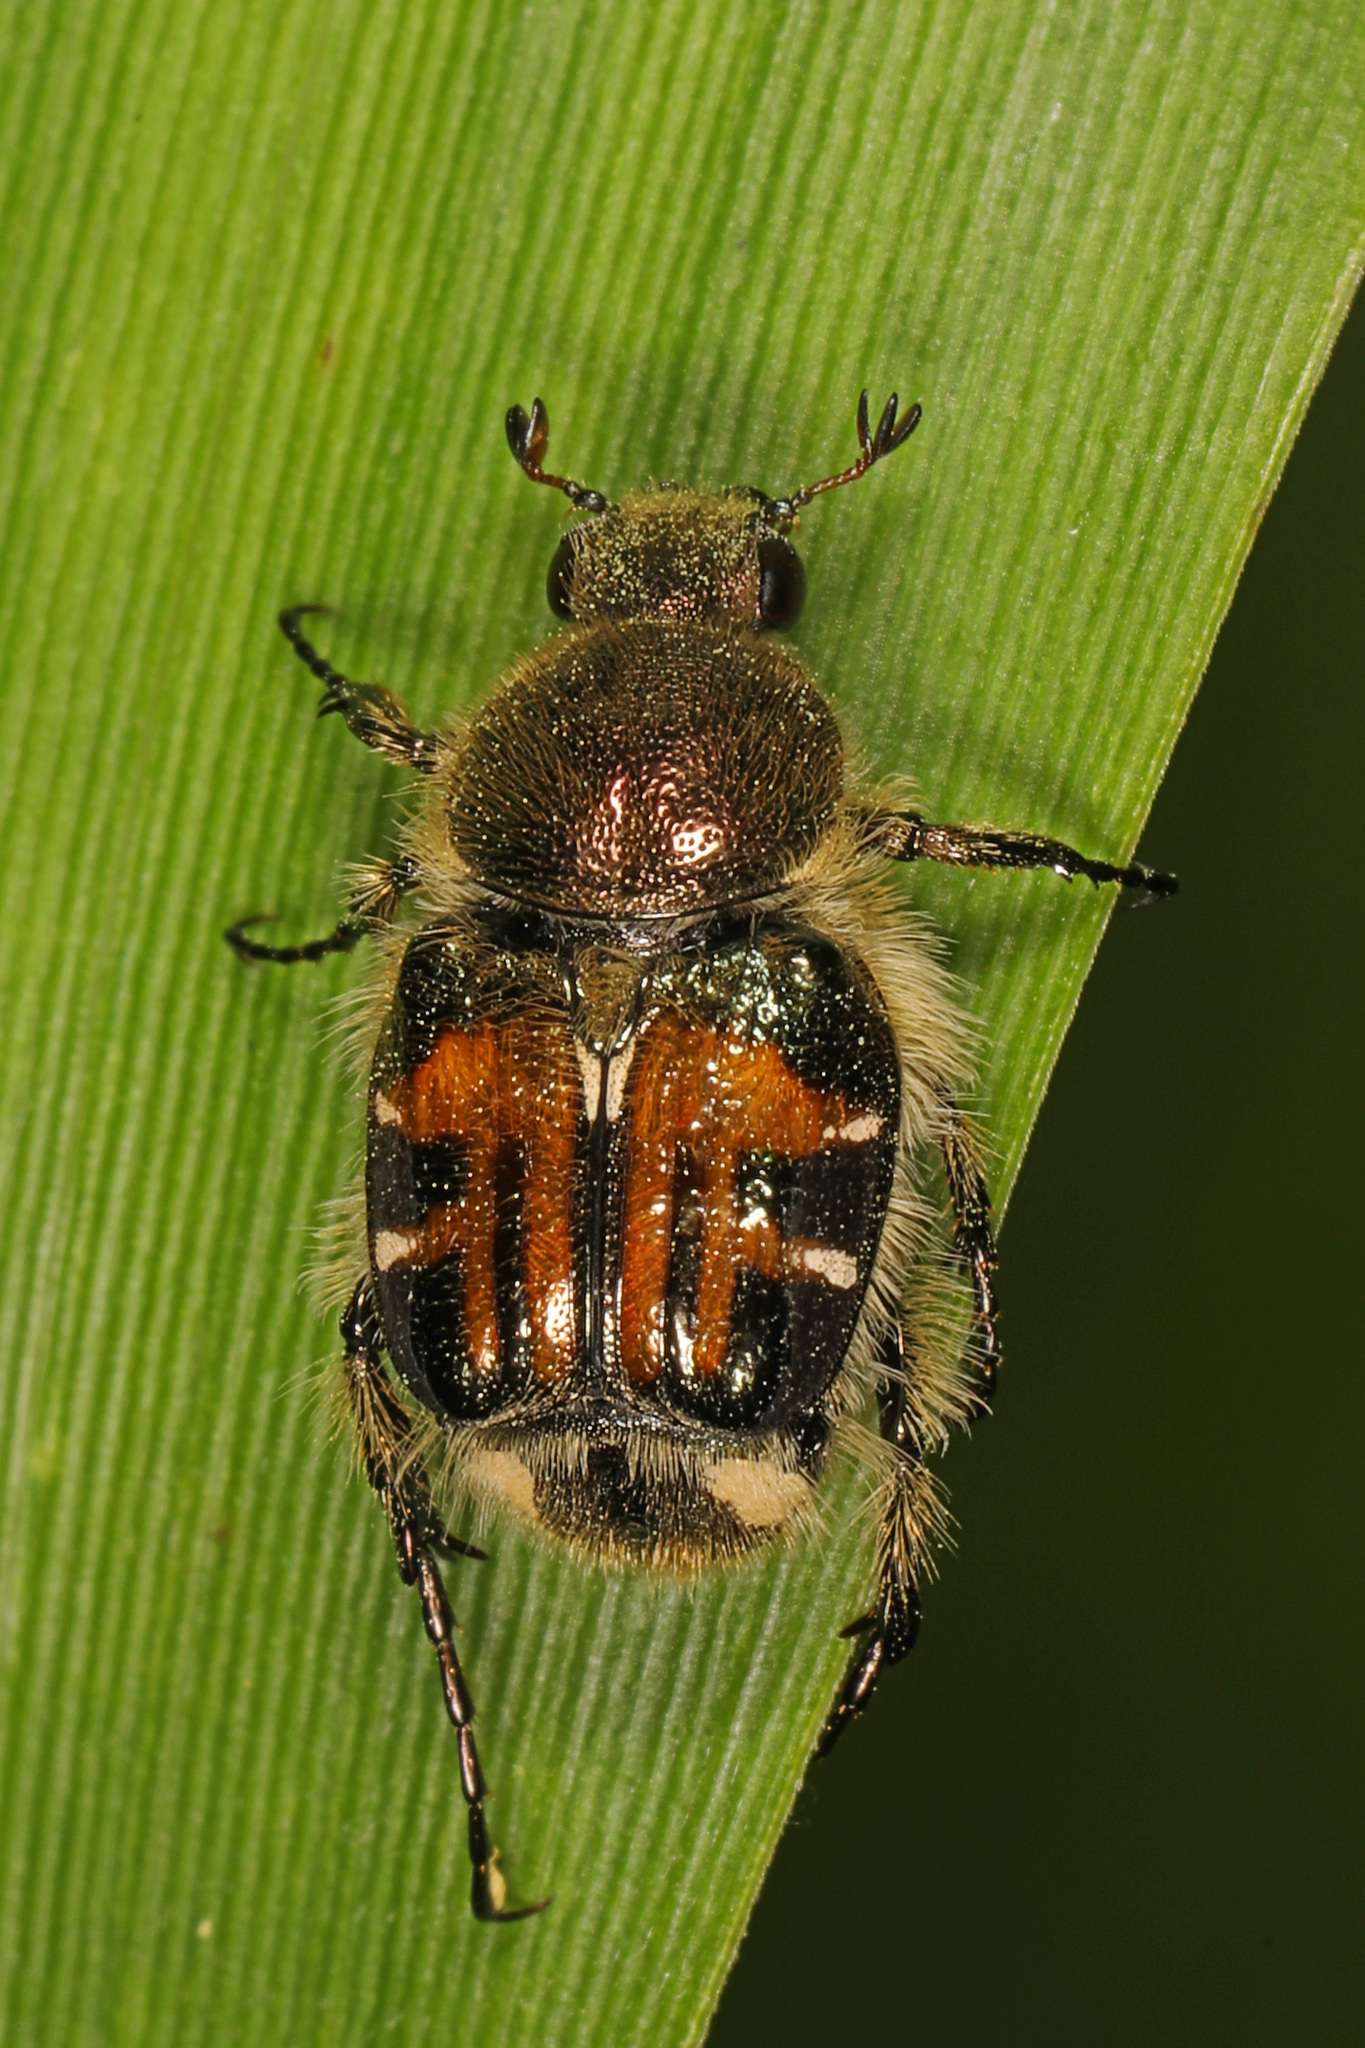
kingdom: Animalia
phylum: Arthropoda
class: Insecta
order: Coleoptera
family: Scarabaeidae
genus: Trichiotinus
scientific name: Trichiotinus affinis
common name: Hairy flower scarab
